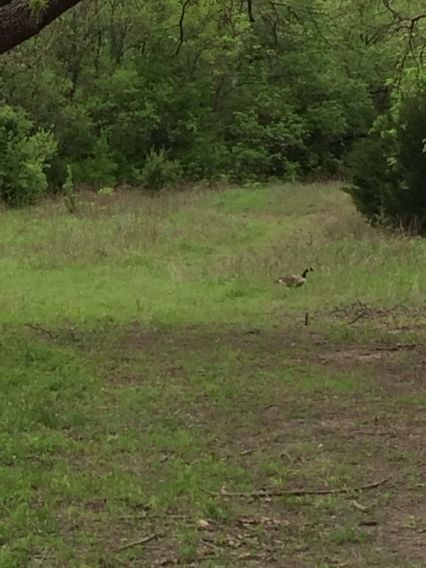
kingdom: Animalia
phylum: Chordata
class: Aves
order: Anseriformes
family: Anatidae
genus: Branta
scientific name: Branta canadensis
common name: Canada goose
